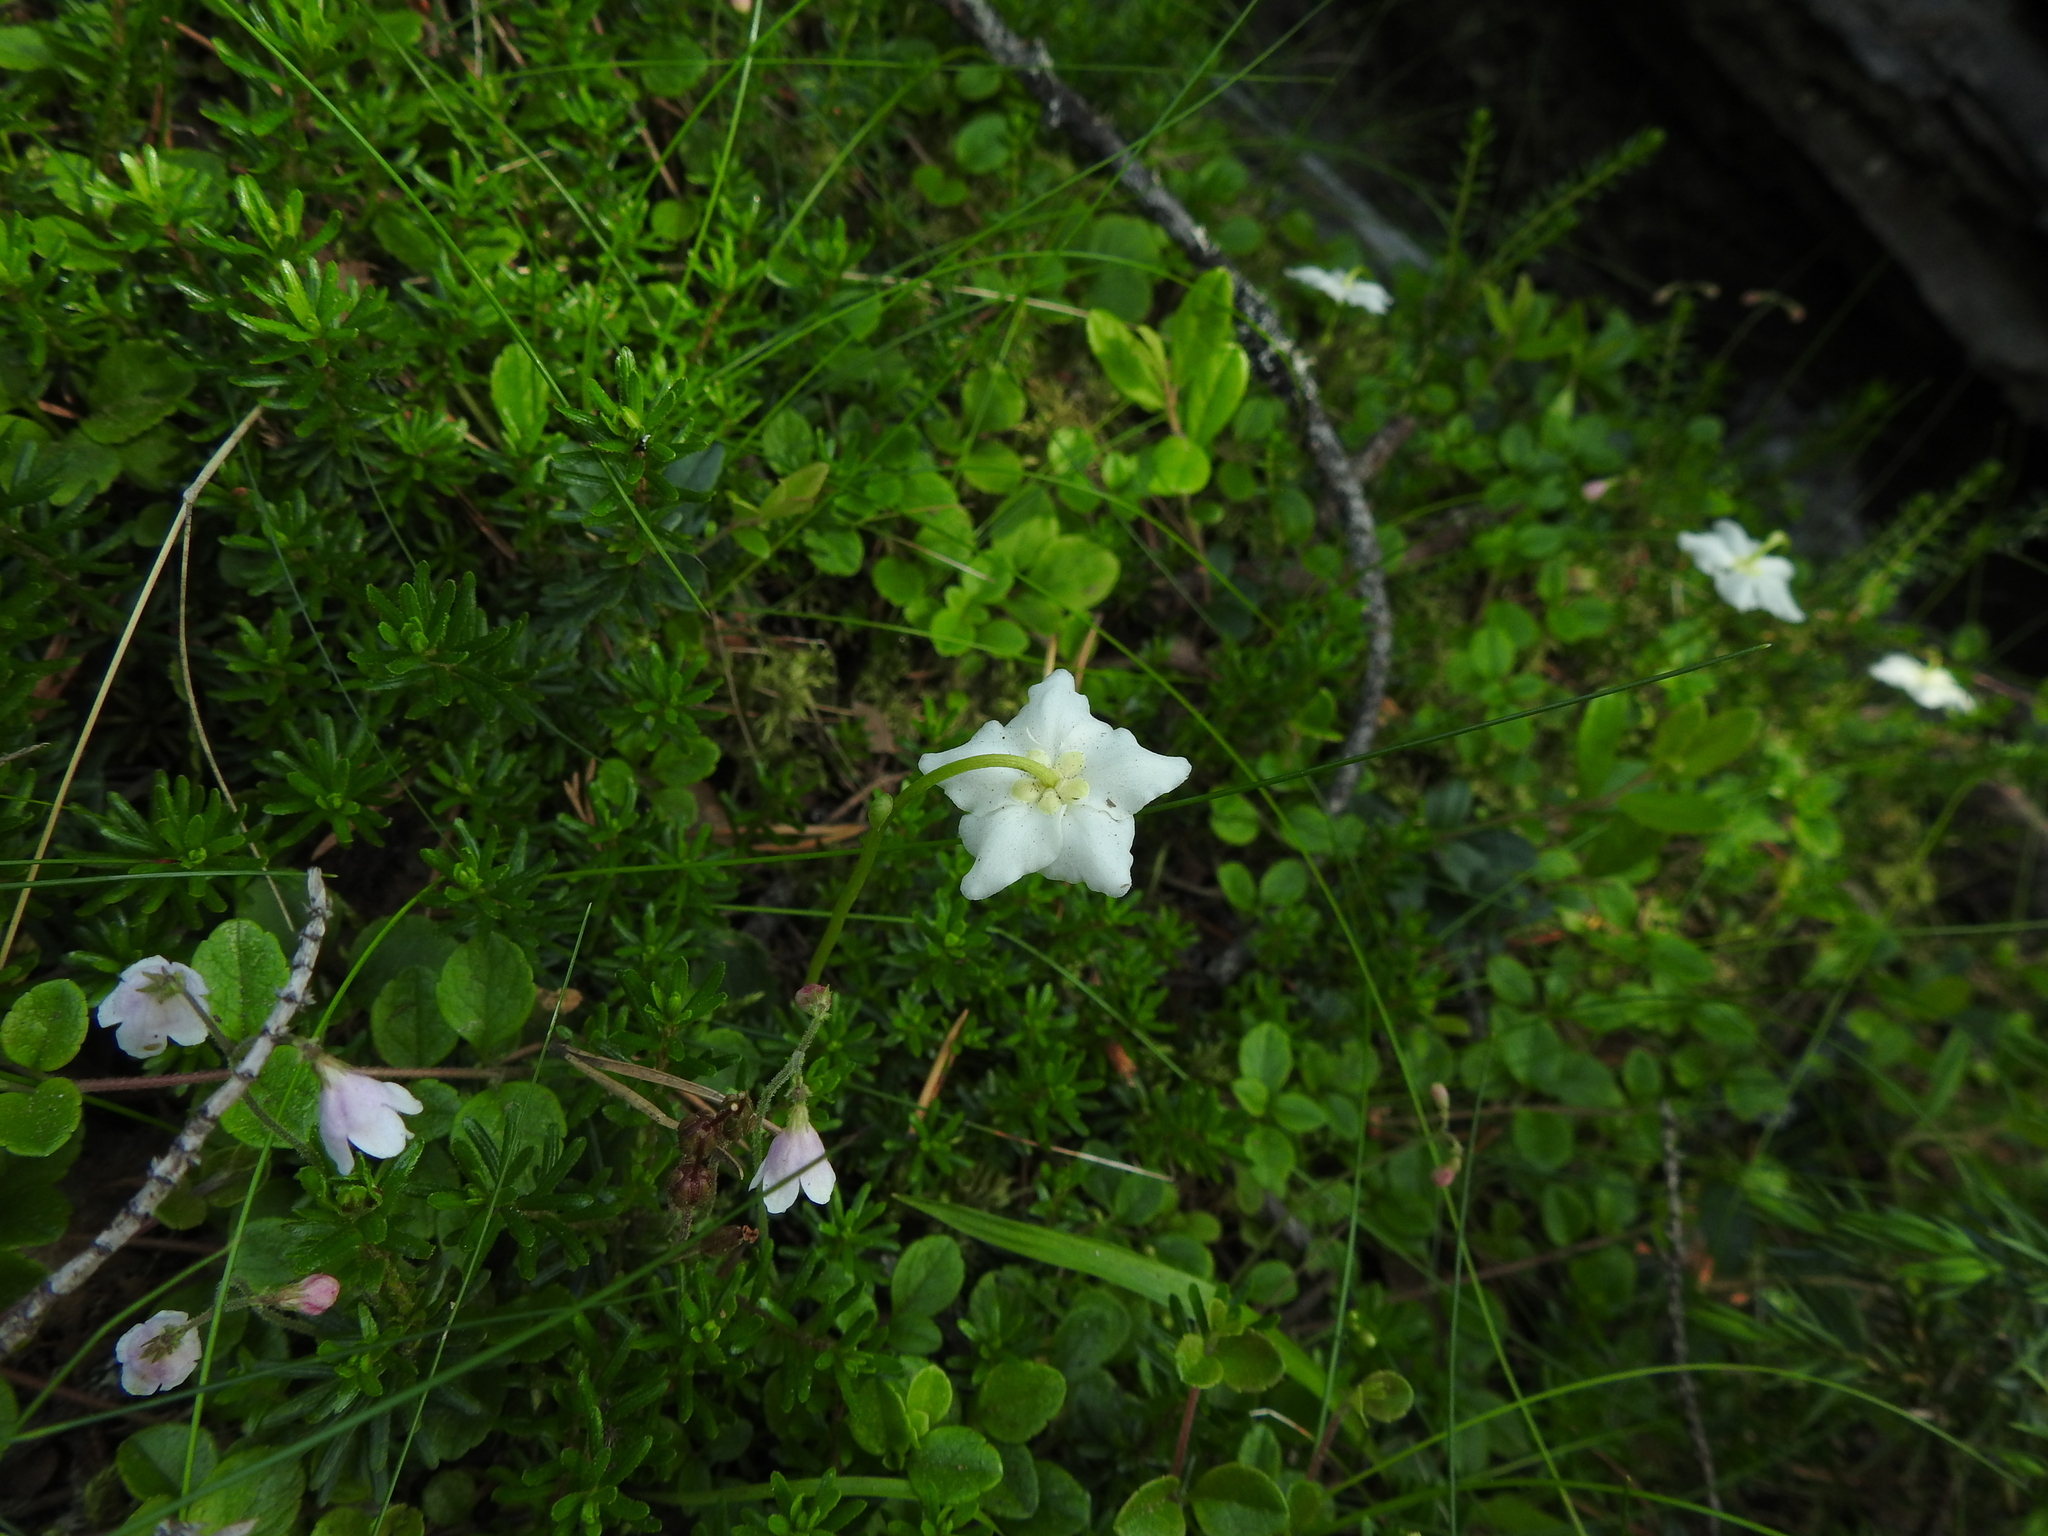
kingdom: Plantae
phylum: Tracheophyta
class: Magnoliopsida
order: Ericales
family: Ericaceae
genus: Moneses
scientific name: Moneses uniflora
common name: One-flowered wintergreen
